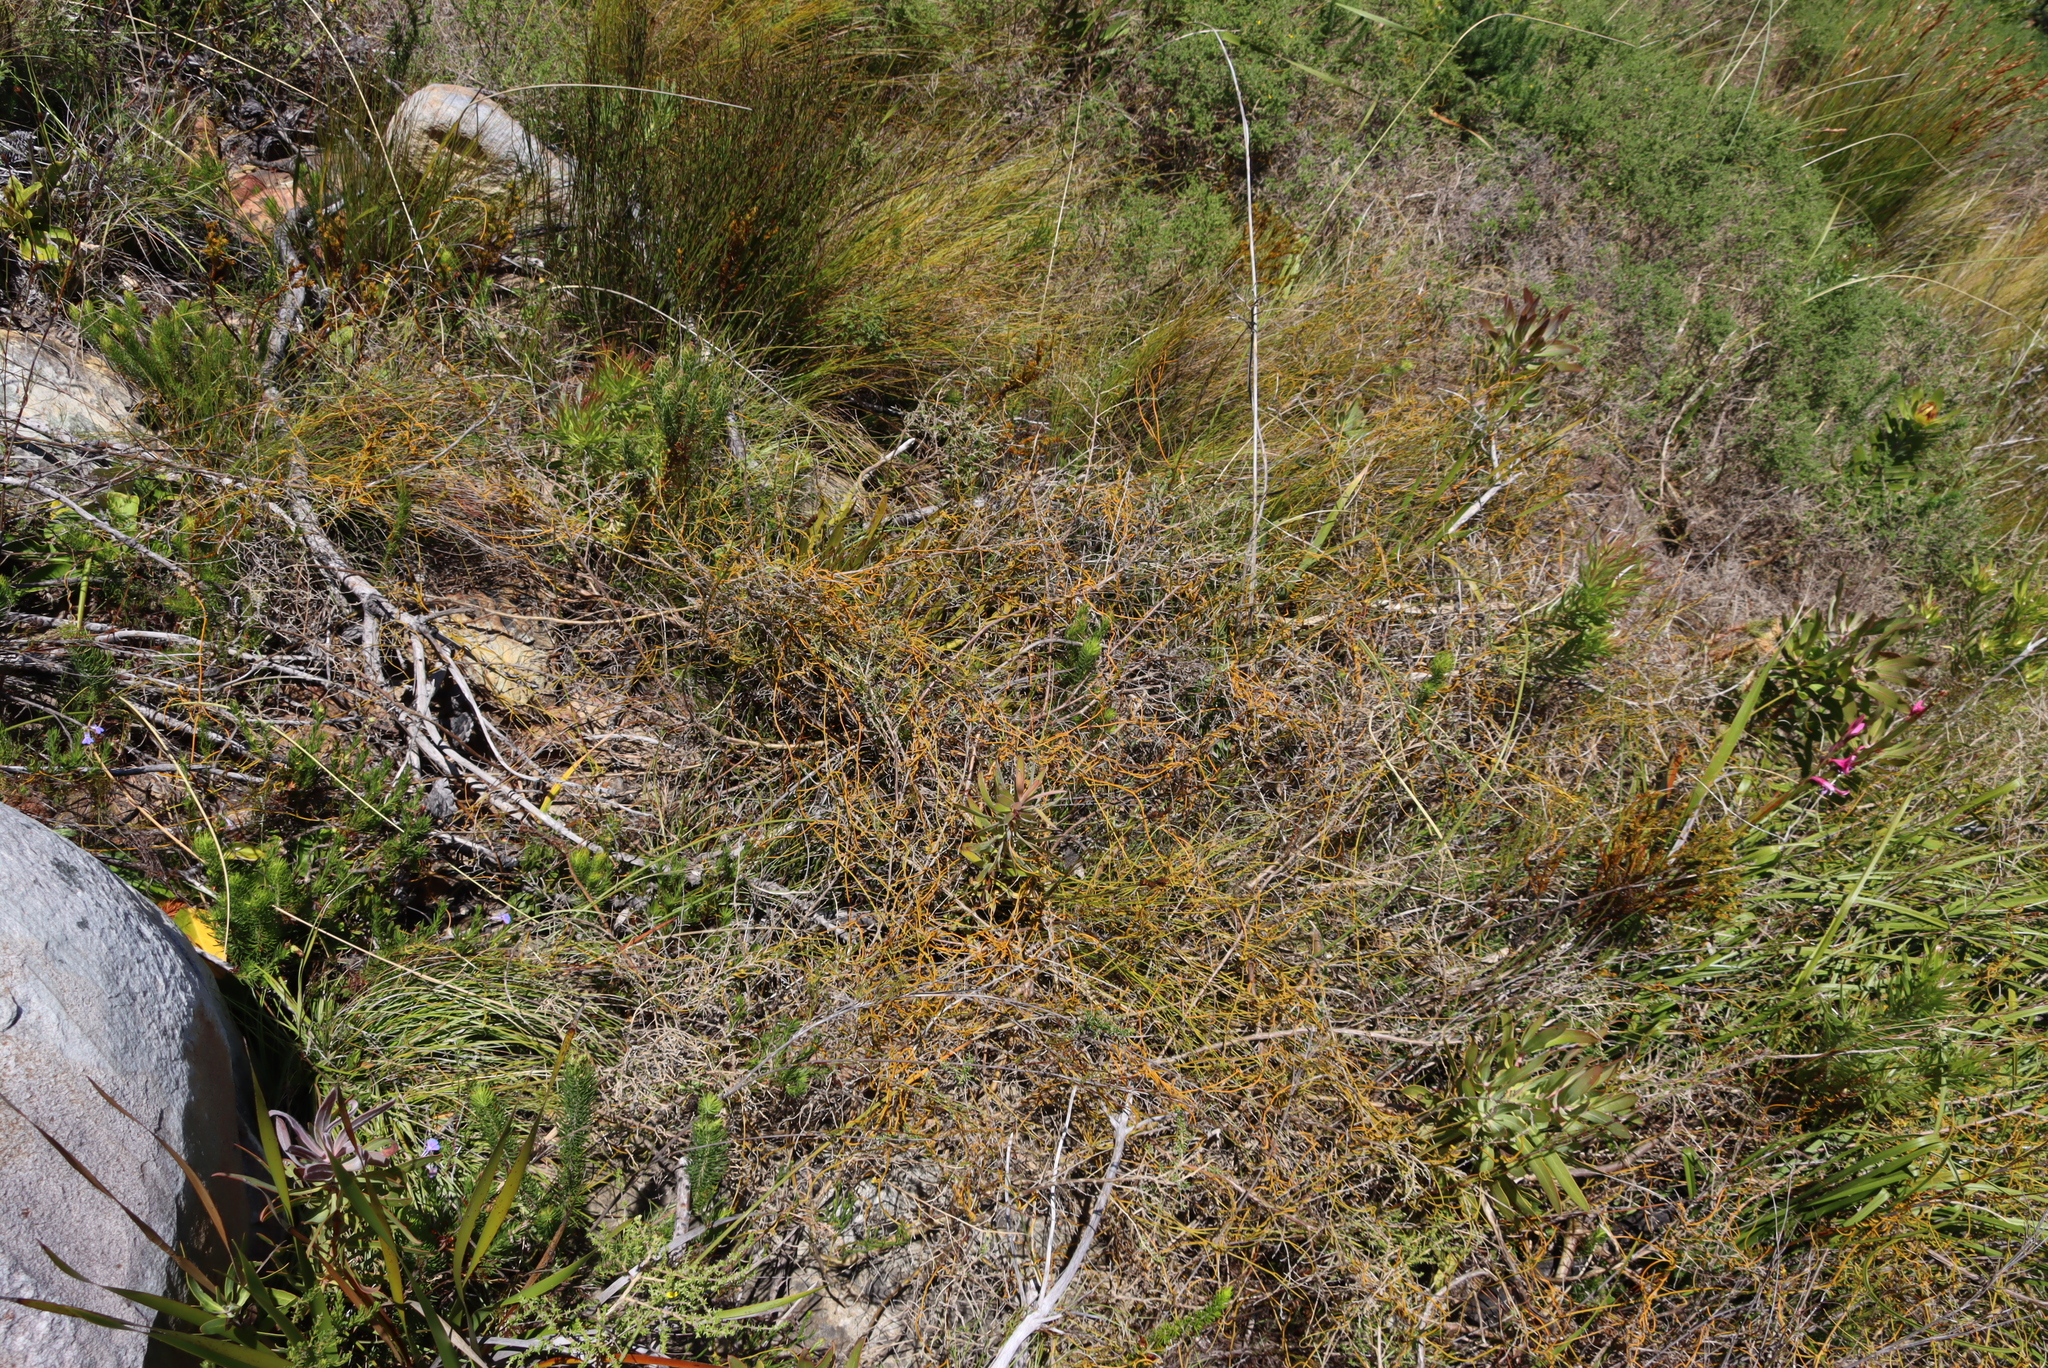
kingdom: Plantae
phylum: Tracheophyta
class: Magnoliopsida
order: Laurales
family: Lauraceae
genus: Cassytha
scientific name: Cassytha ciliolata
